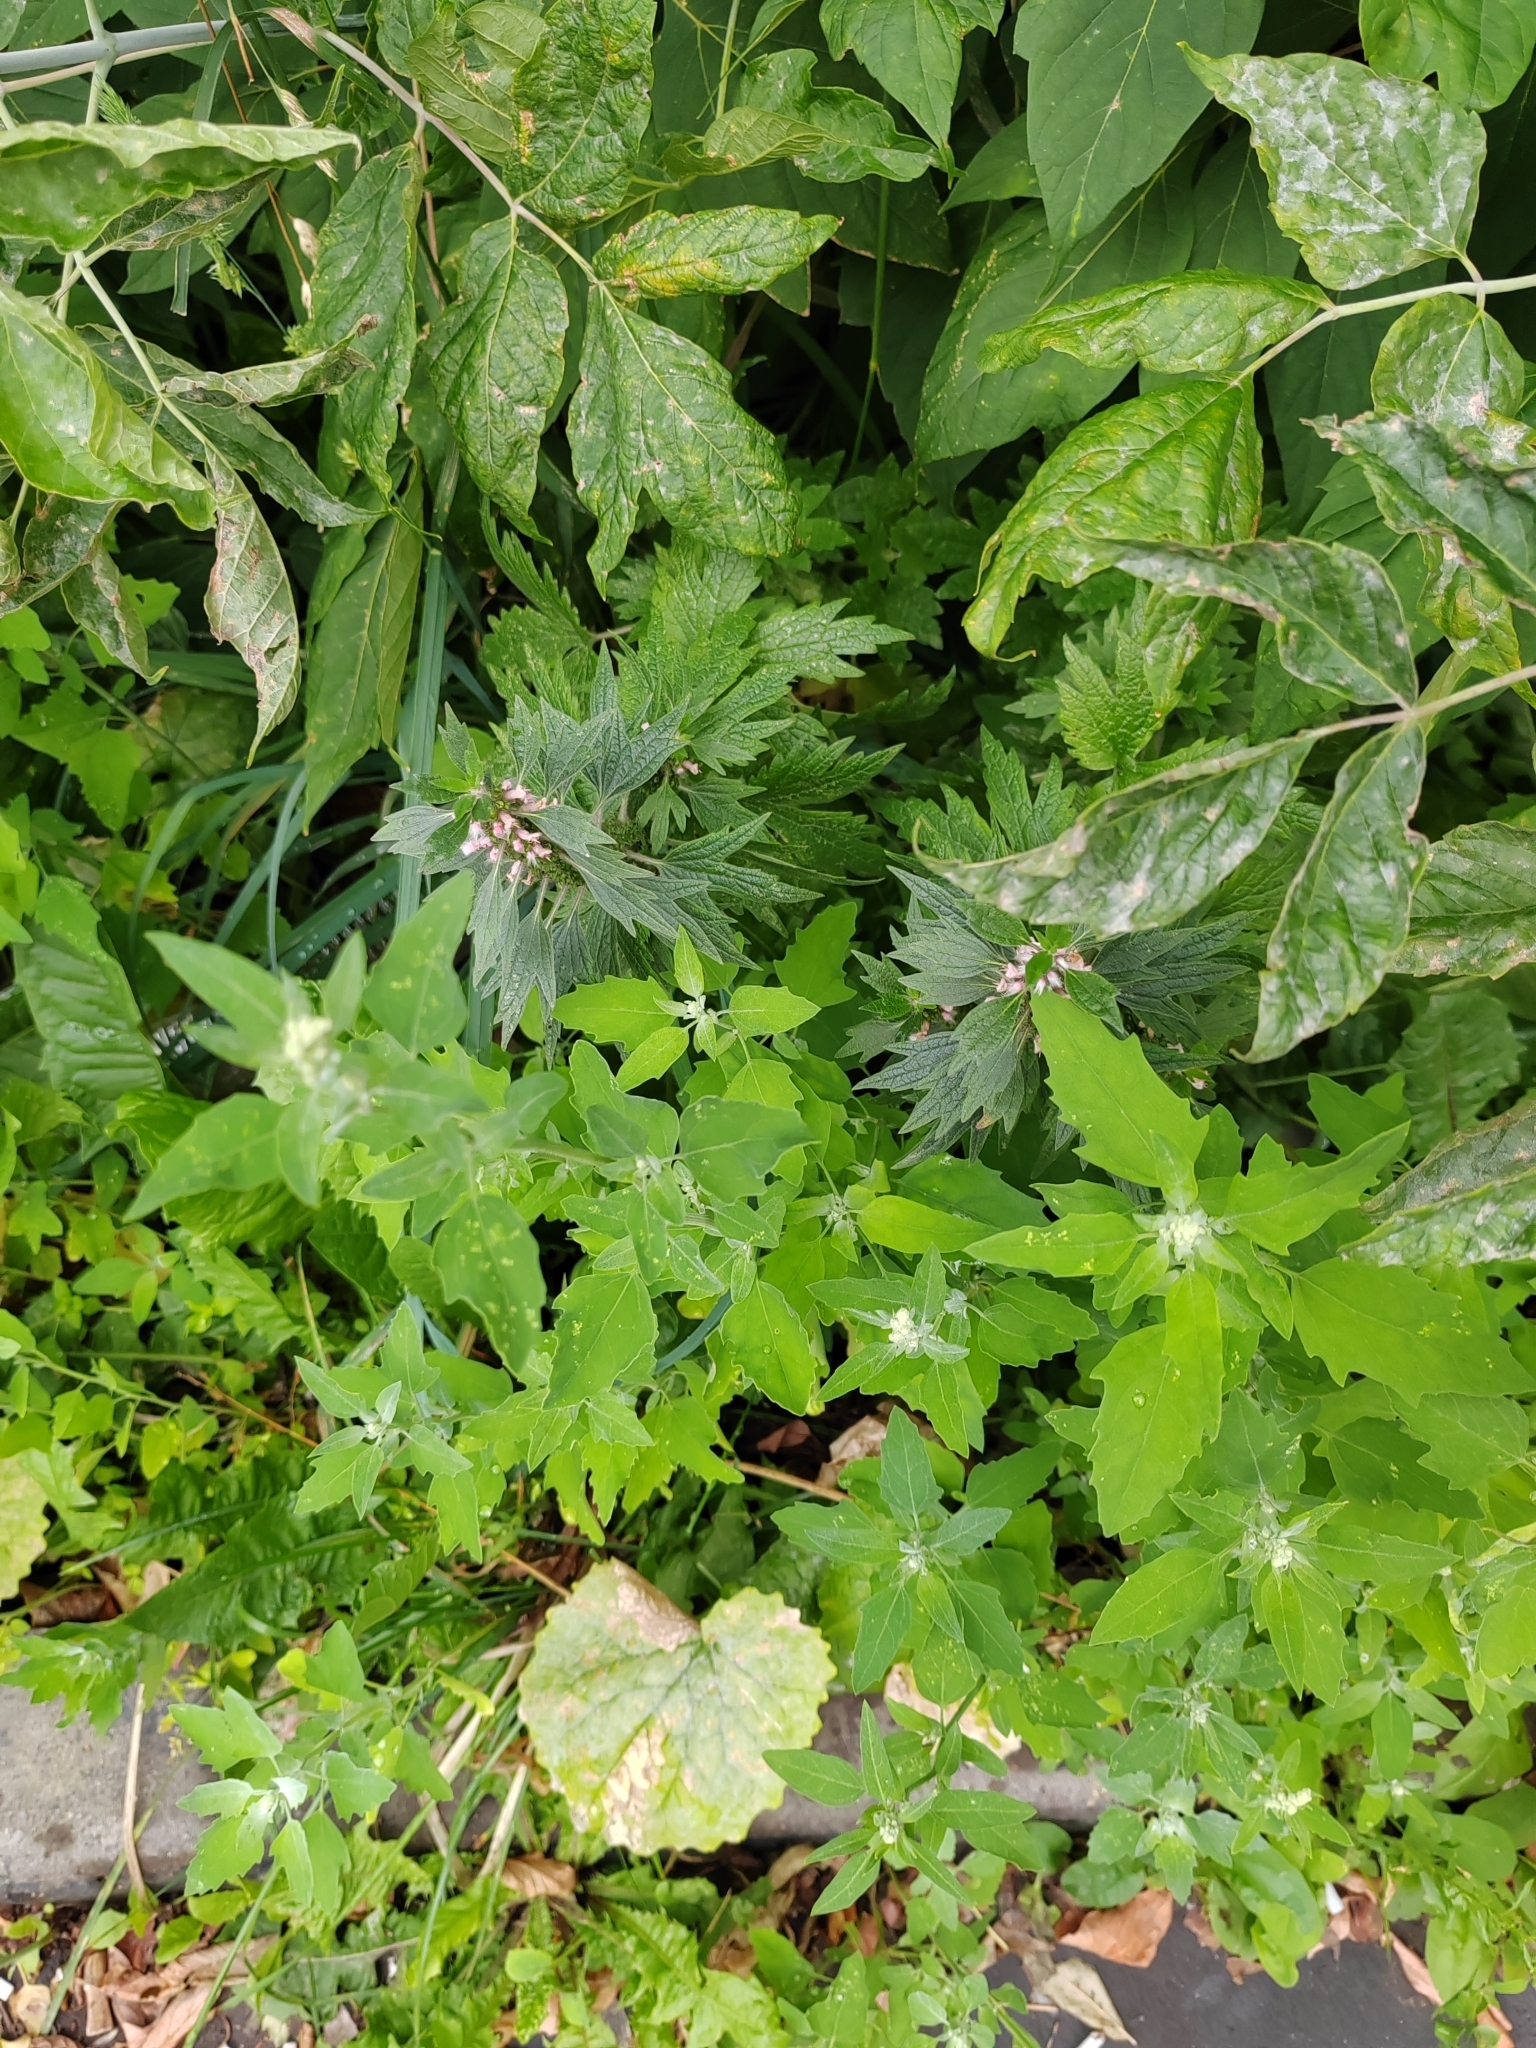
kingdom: Plantae
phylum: Tracheophyta
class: Magnoliopsida
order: Lamiales
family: Lamiaceae
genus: Leonurus
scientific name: Leonurus quinquelobatus
